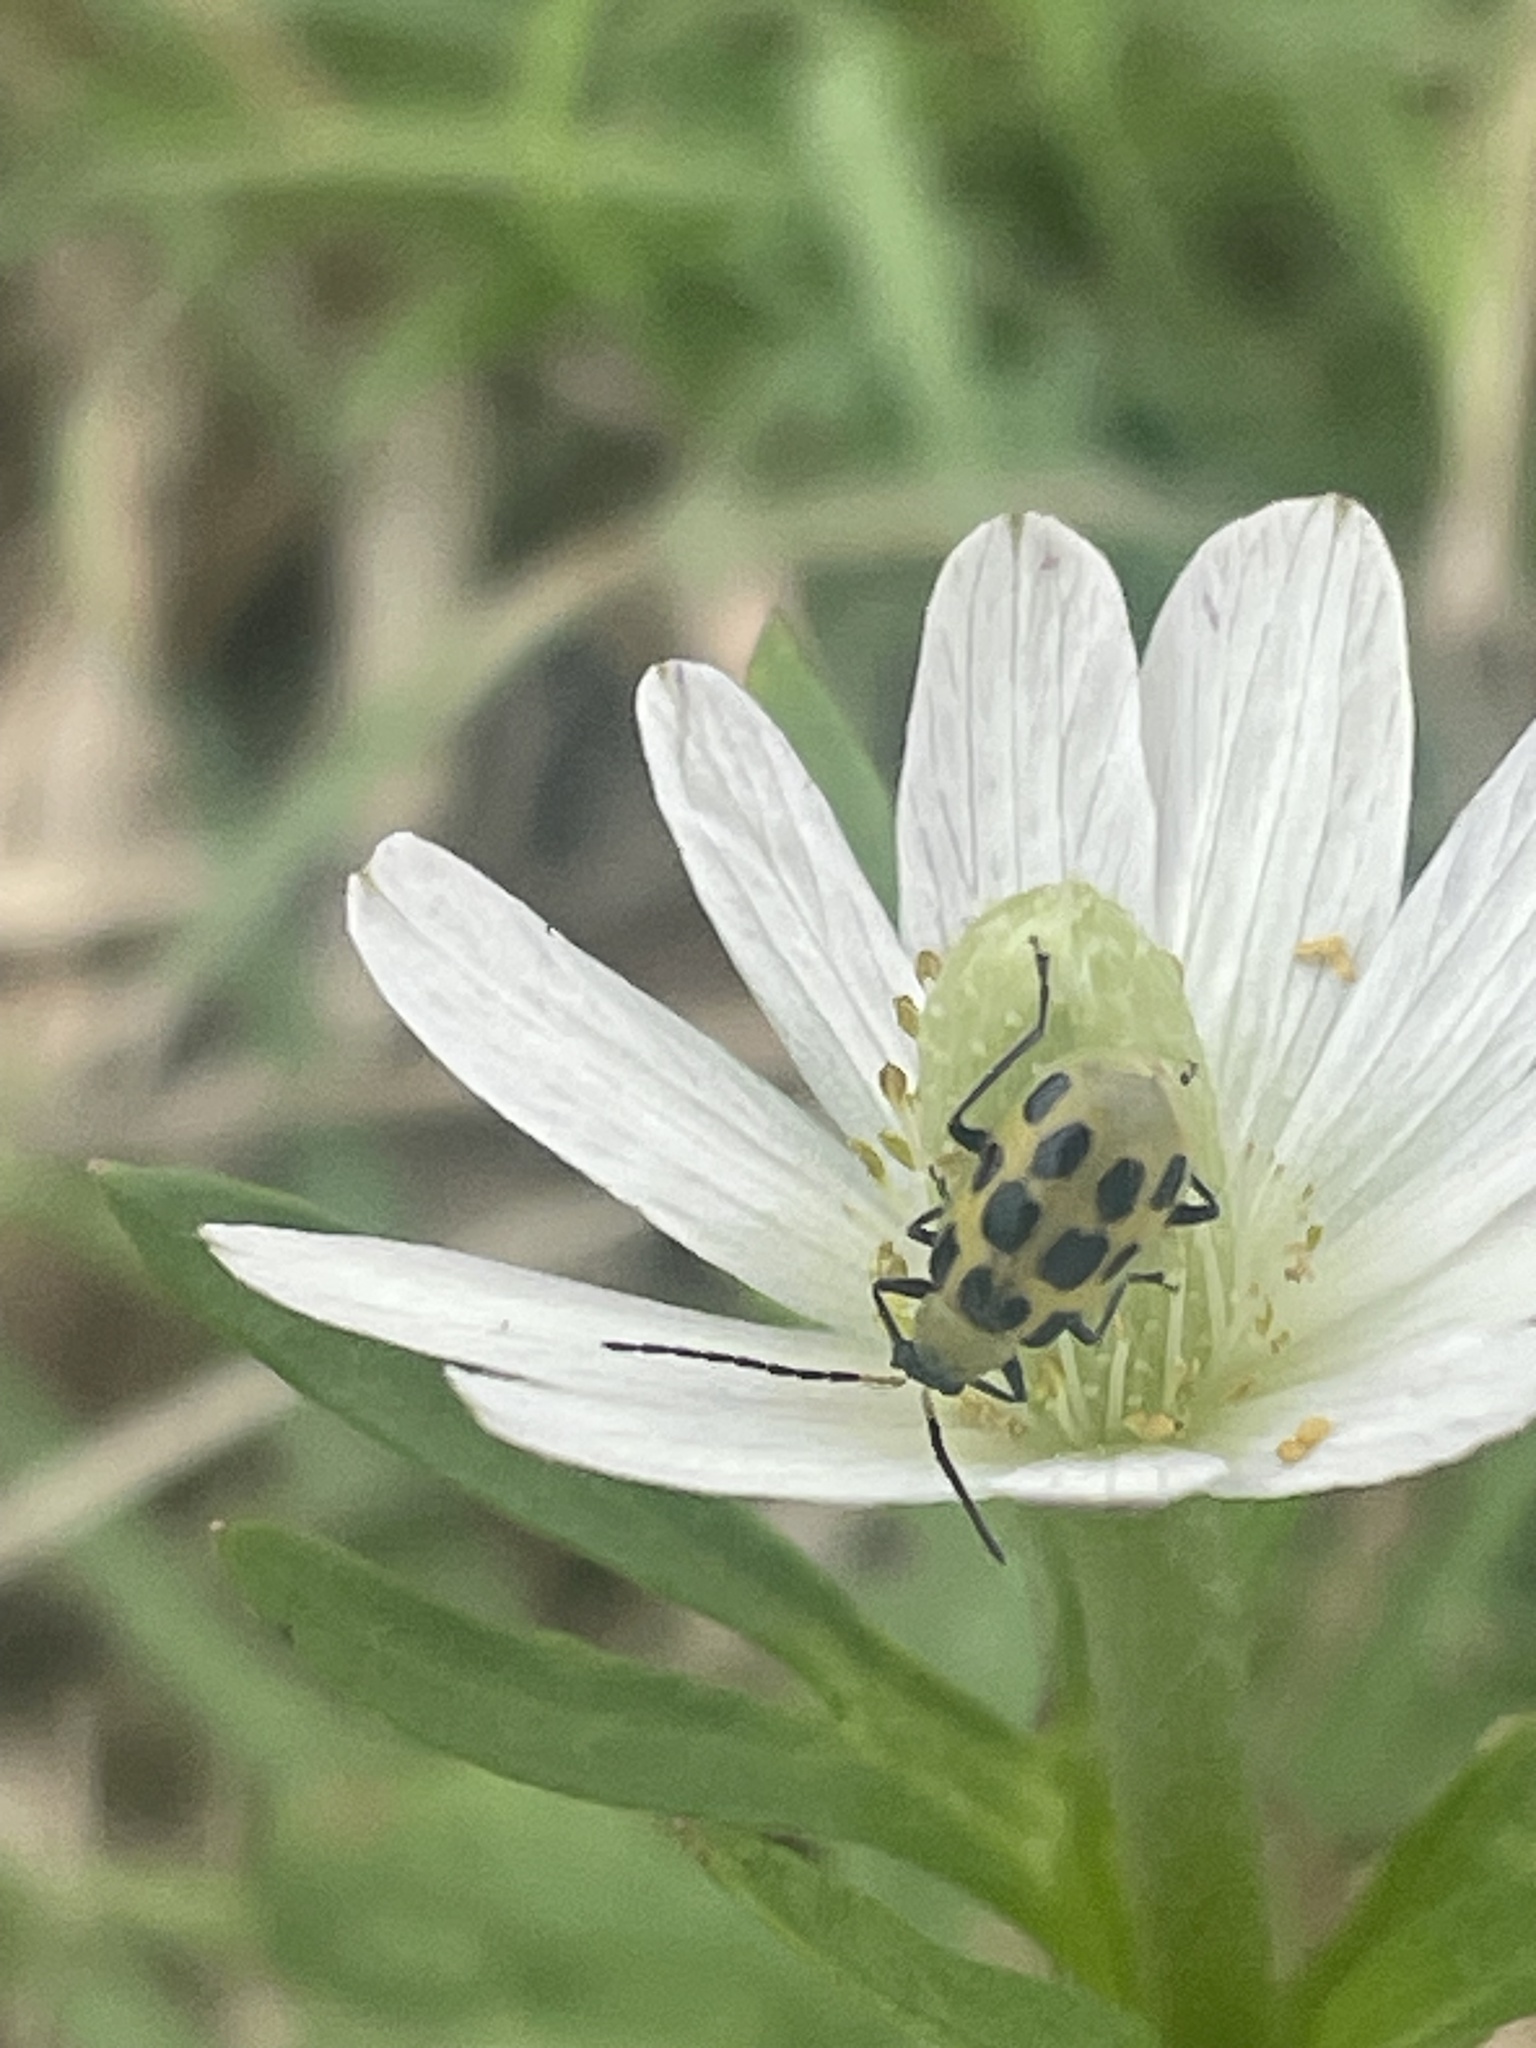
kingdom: Animalia
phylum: Arthropoda
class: Insecta
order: Coleoptera
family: Chrysomelidae
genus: Diabrotica
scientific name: Diabrotica undecimpunctata
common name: Spotted cucumber beetle
